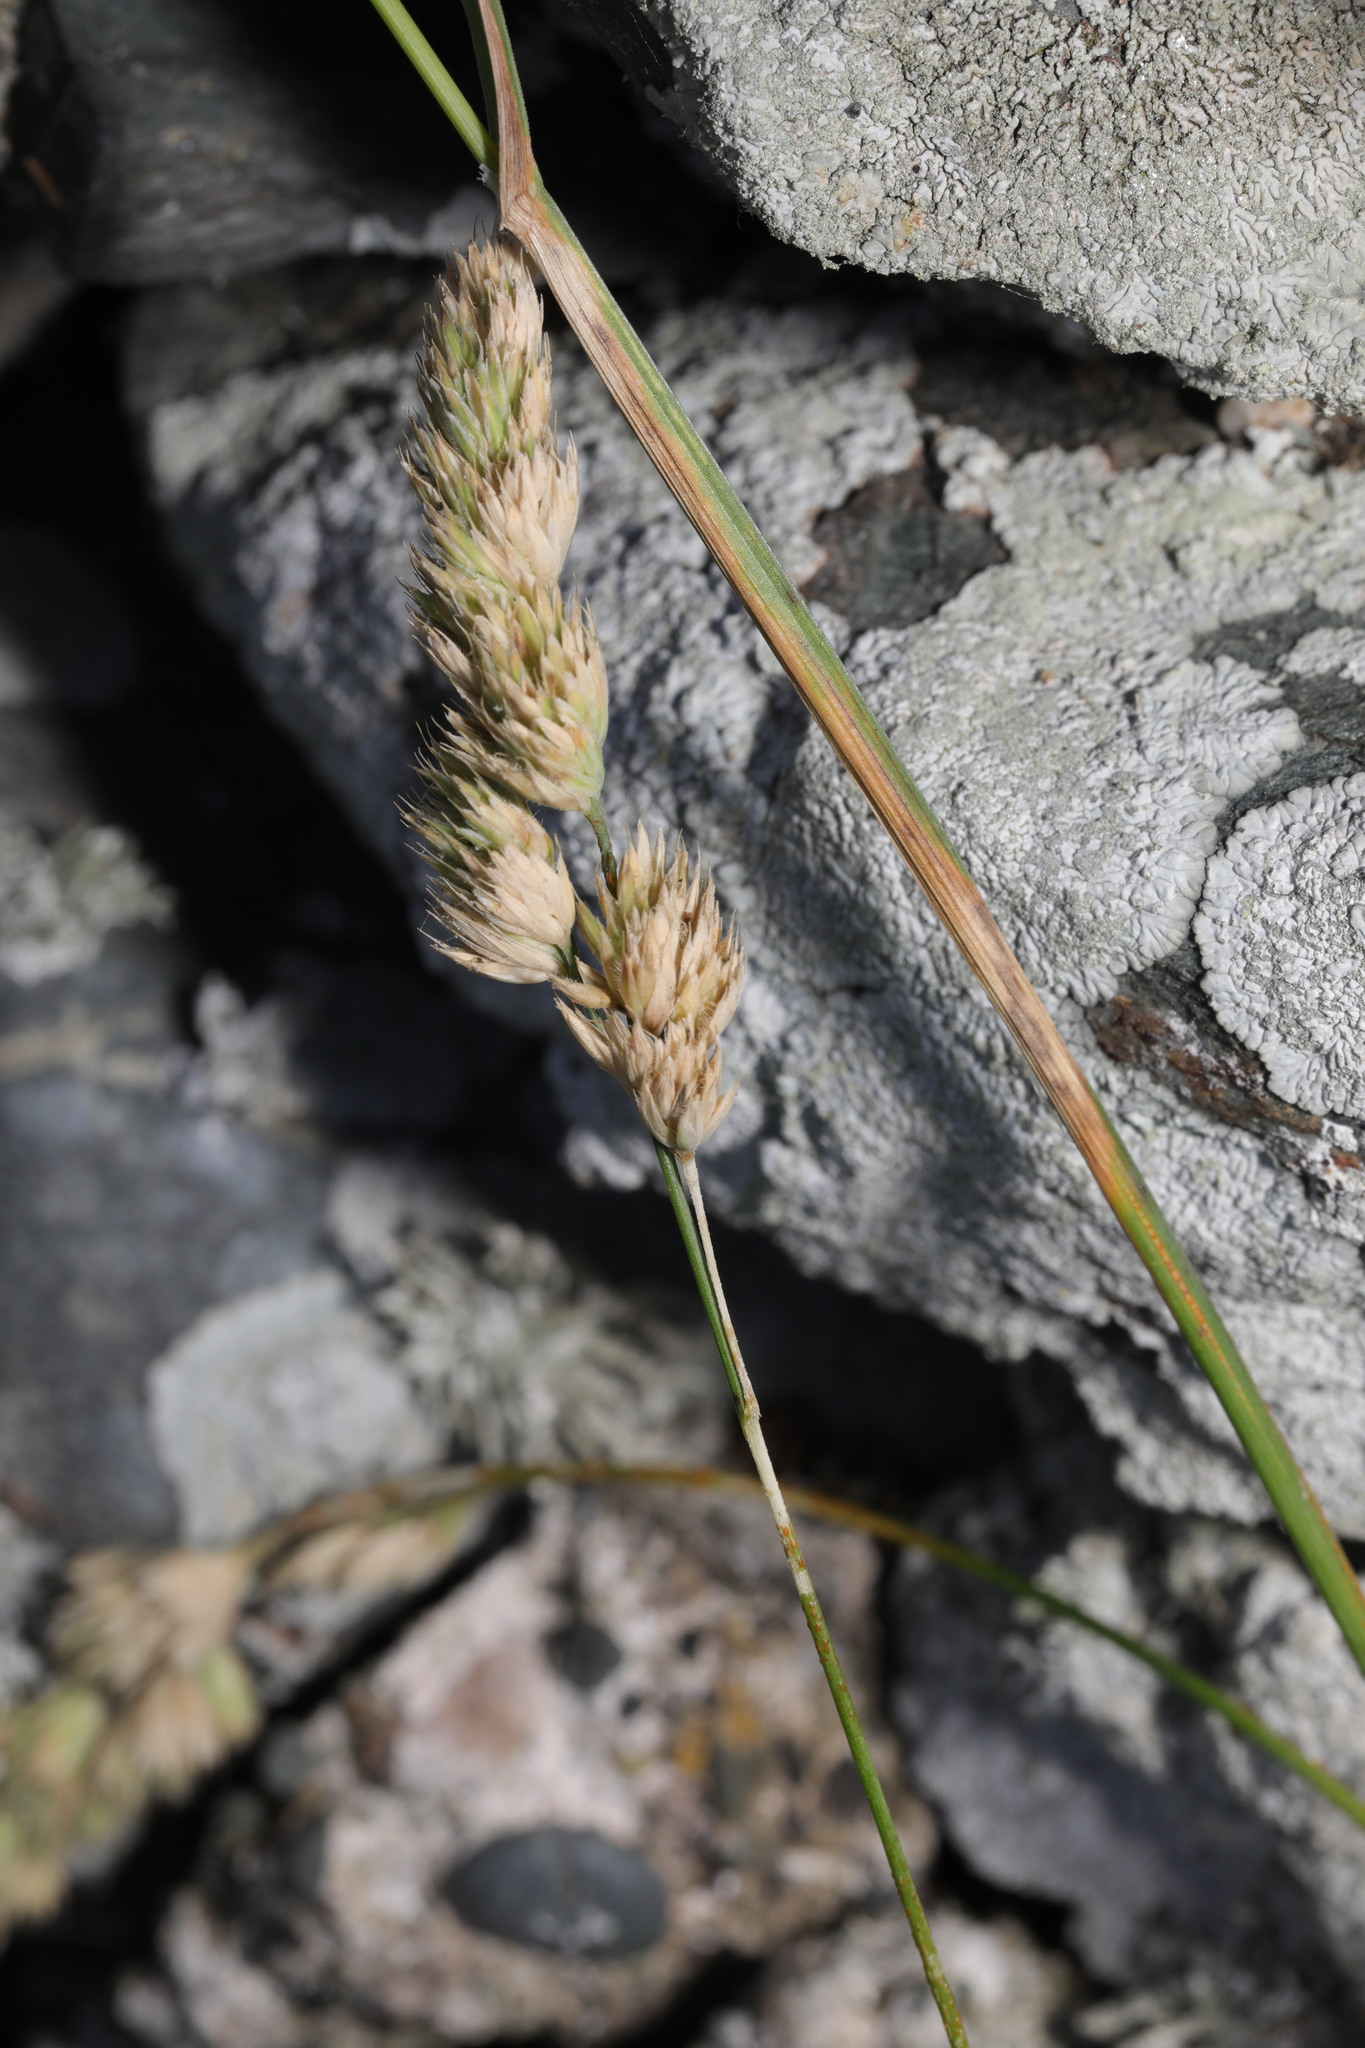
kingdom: Plantae
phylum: Tracheophyta
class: Liliopsida
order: Poales
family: Poaceae
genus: Dactylis
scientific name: Dactylis glomerata
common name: Orchardgrass
